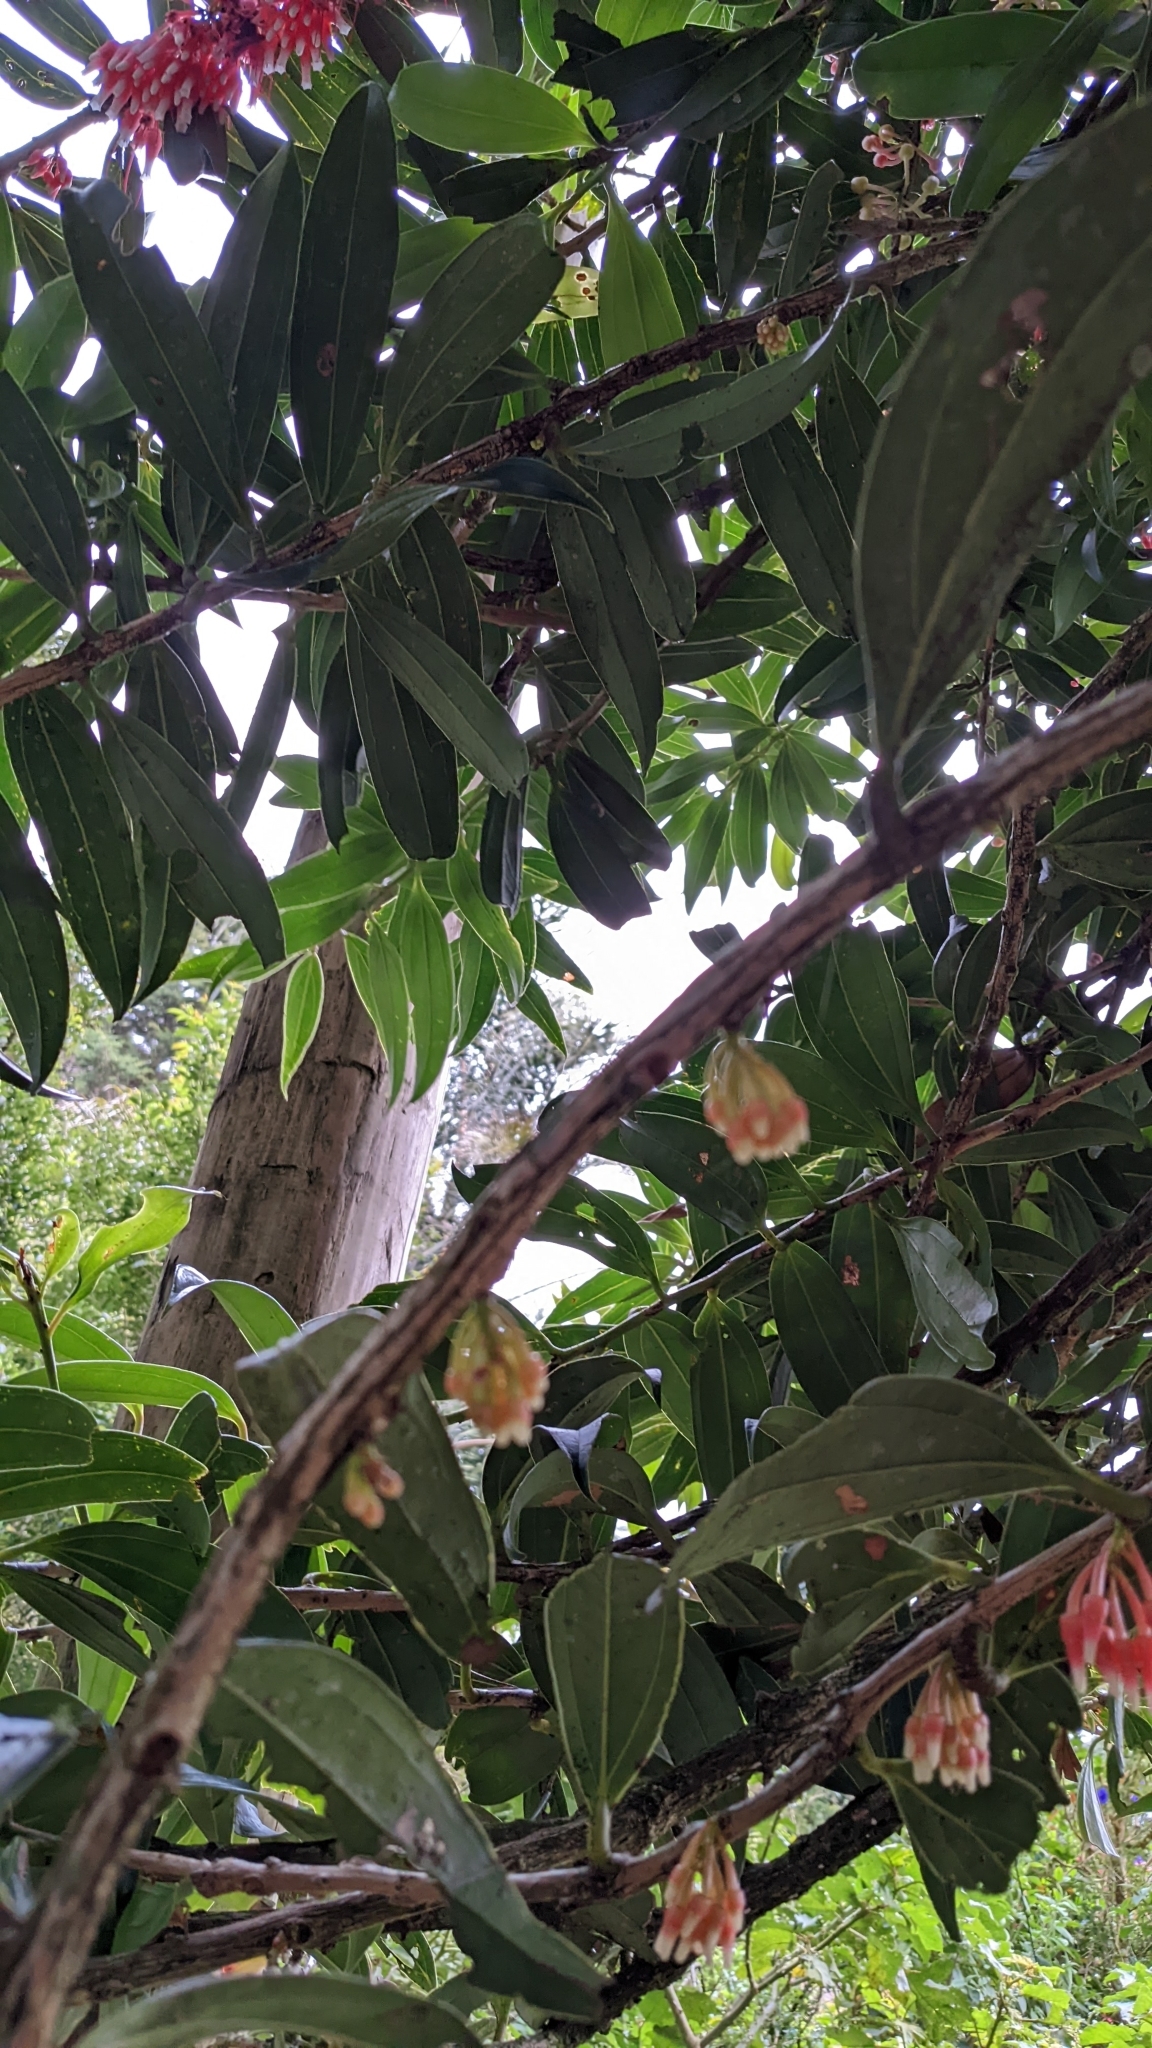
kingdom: Plantae
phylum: Tracheophyta
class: Magnoliopsida
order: Ericales
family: Ericaceae
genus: Satyria
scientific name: Satyria warszewiczii
